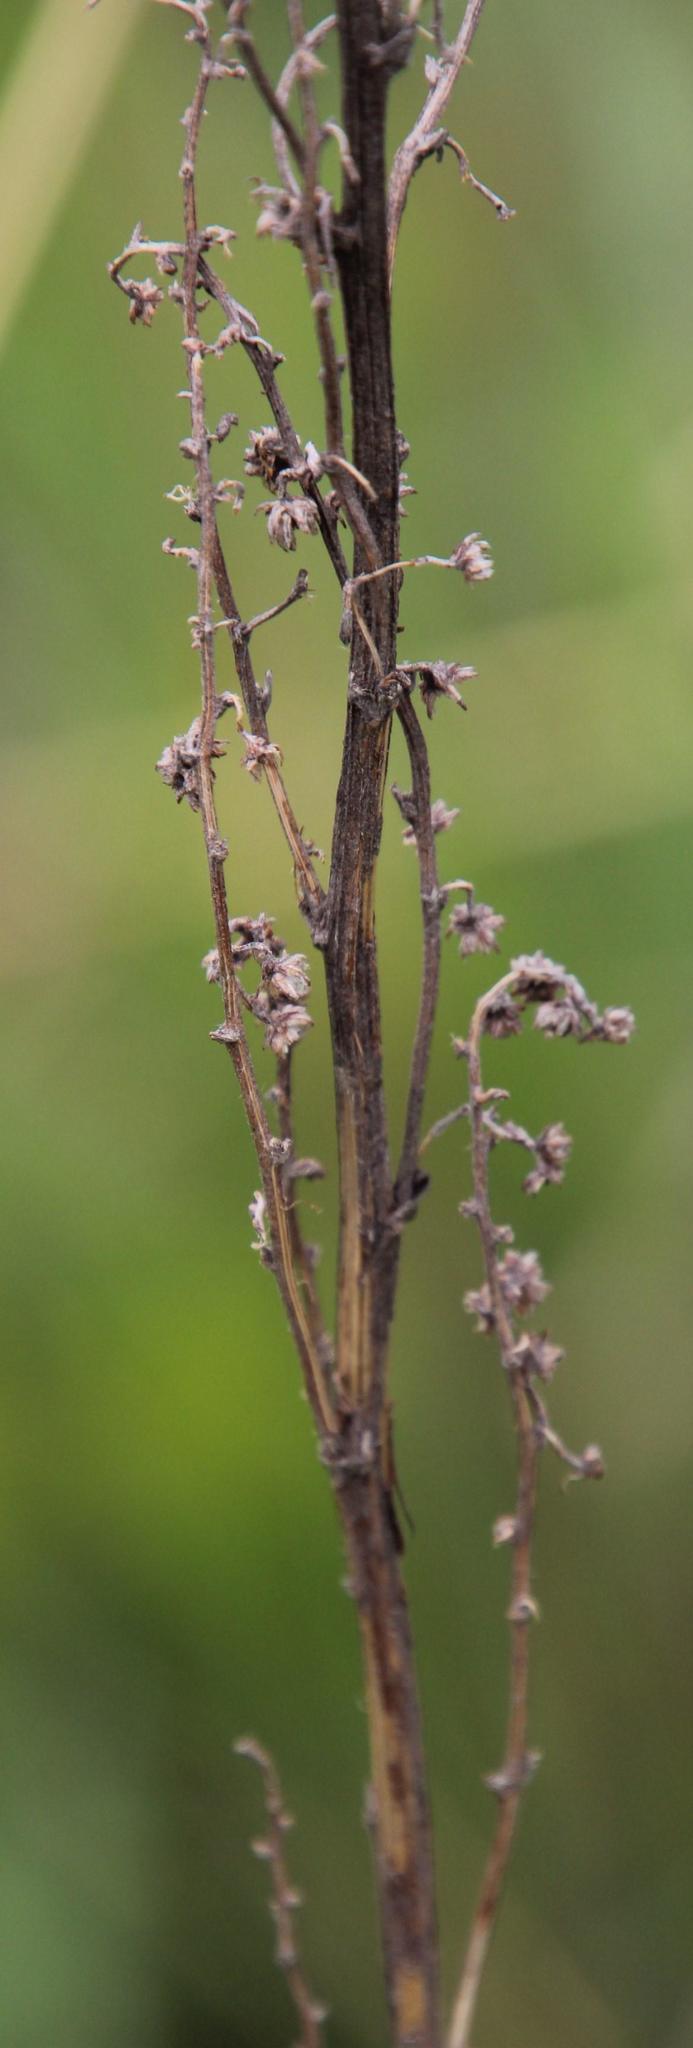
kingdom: Plantae
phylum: Tracheophyta
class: Magnoliopsida
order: Asterales
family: Asteraceae
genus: Artemisia
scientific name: Artemisia afra
